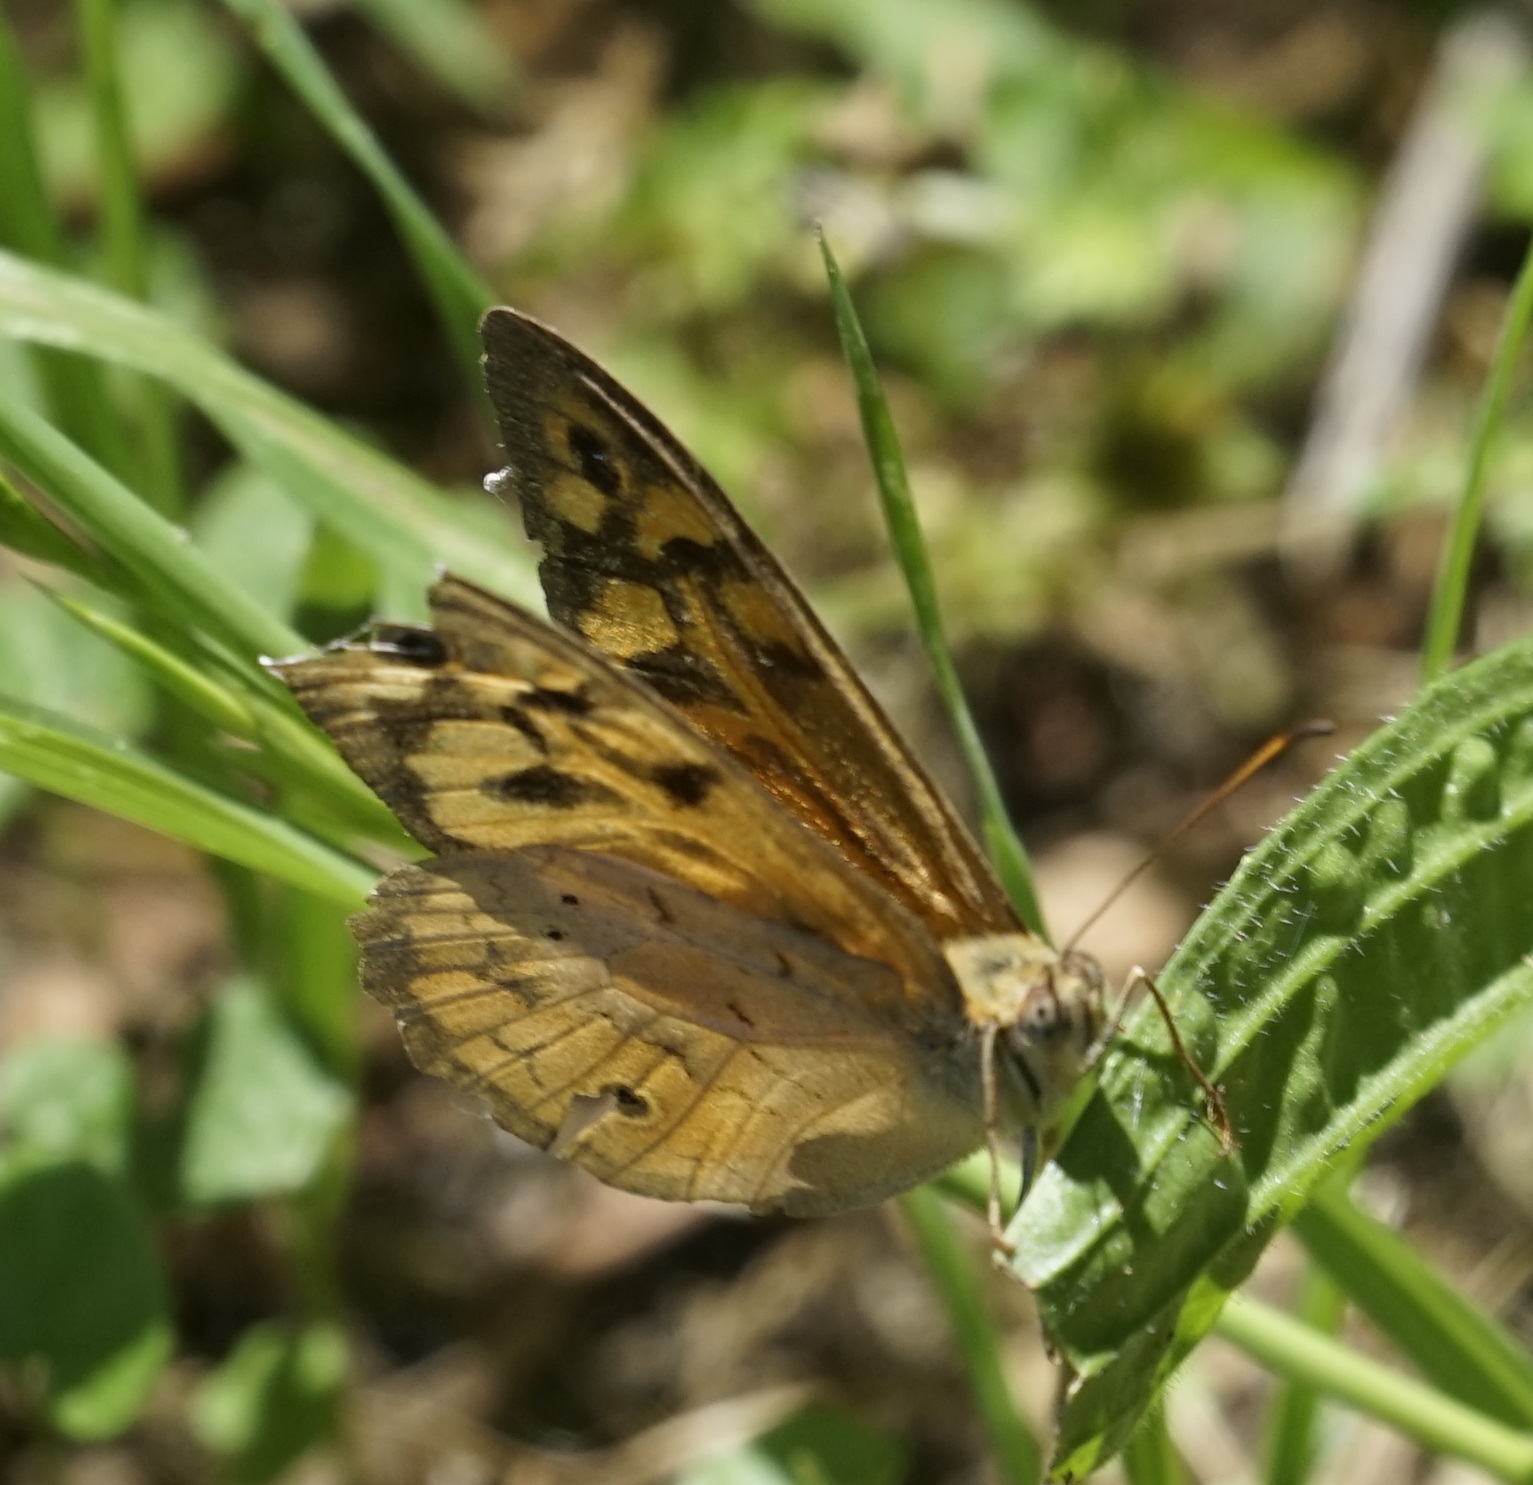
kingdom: Animalia
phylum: Arthropoda
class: Insecta
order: Lepidoptera
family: Nymphalidae
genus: Heteronympha
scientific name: Heteronympha merope
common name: Common brown
